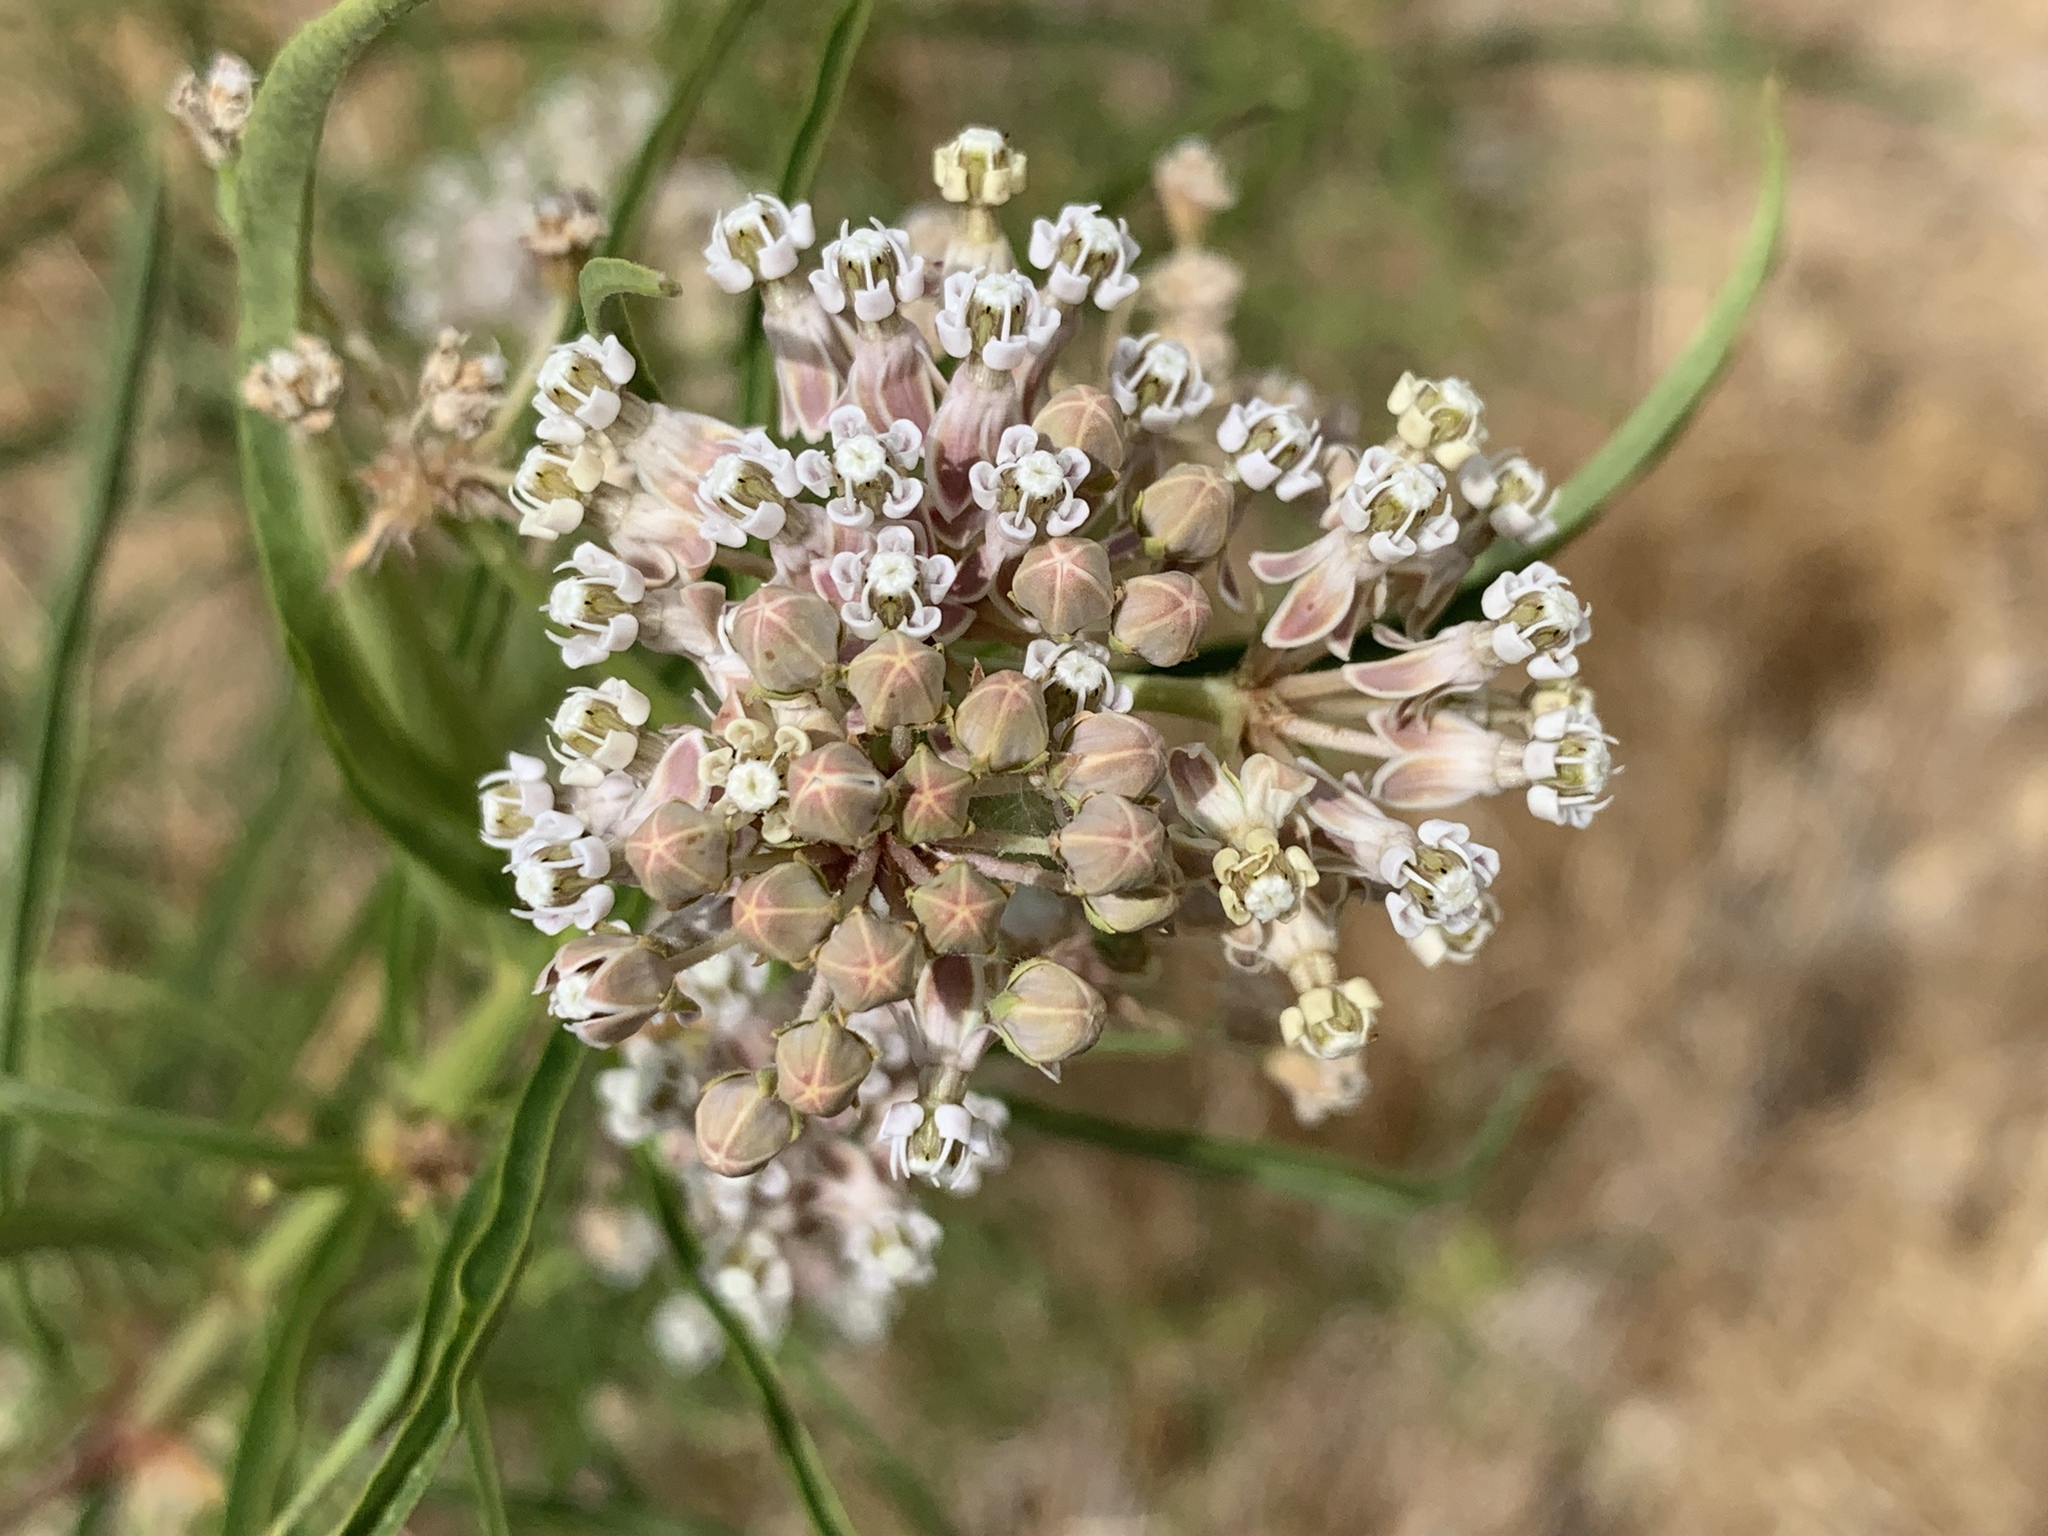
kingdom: Plantae
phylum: Tracheophyta
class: Magnoliopsida
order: Gentianales
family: Apocynaceae
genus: Asclepias
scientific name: Asclepias fascicularis
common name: Mexican milkweed
